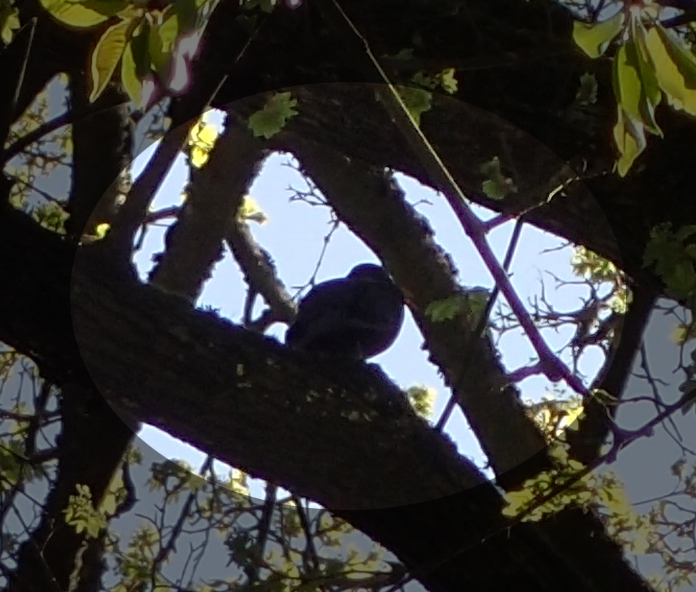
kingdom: Animalia
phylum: Chordata
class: Aves
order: Passeriformes
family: Turdidae
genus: Turdus
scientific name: Turdus merula
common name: Common blackbird
